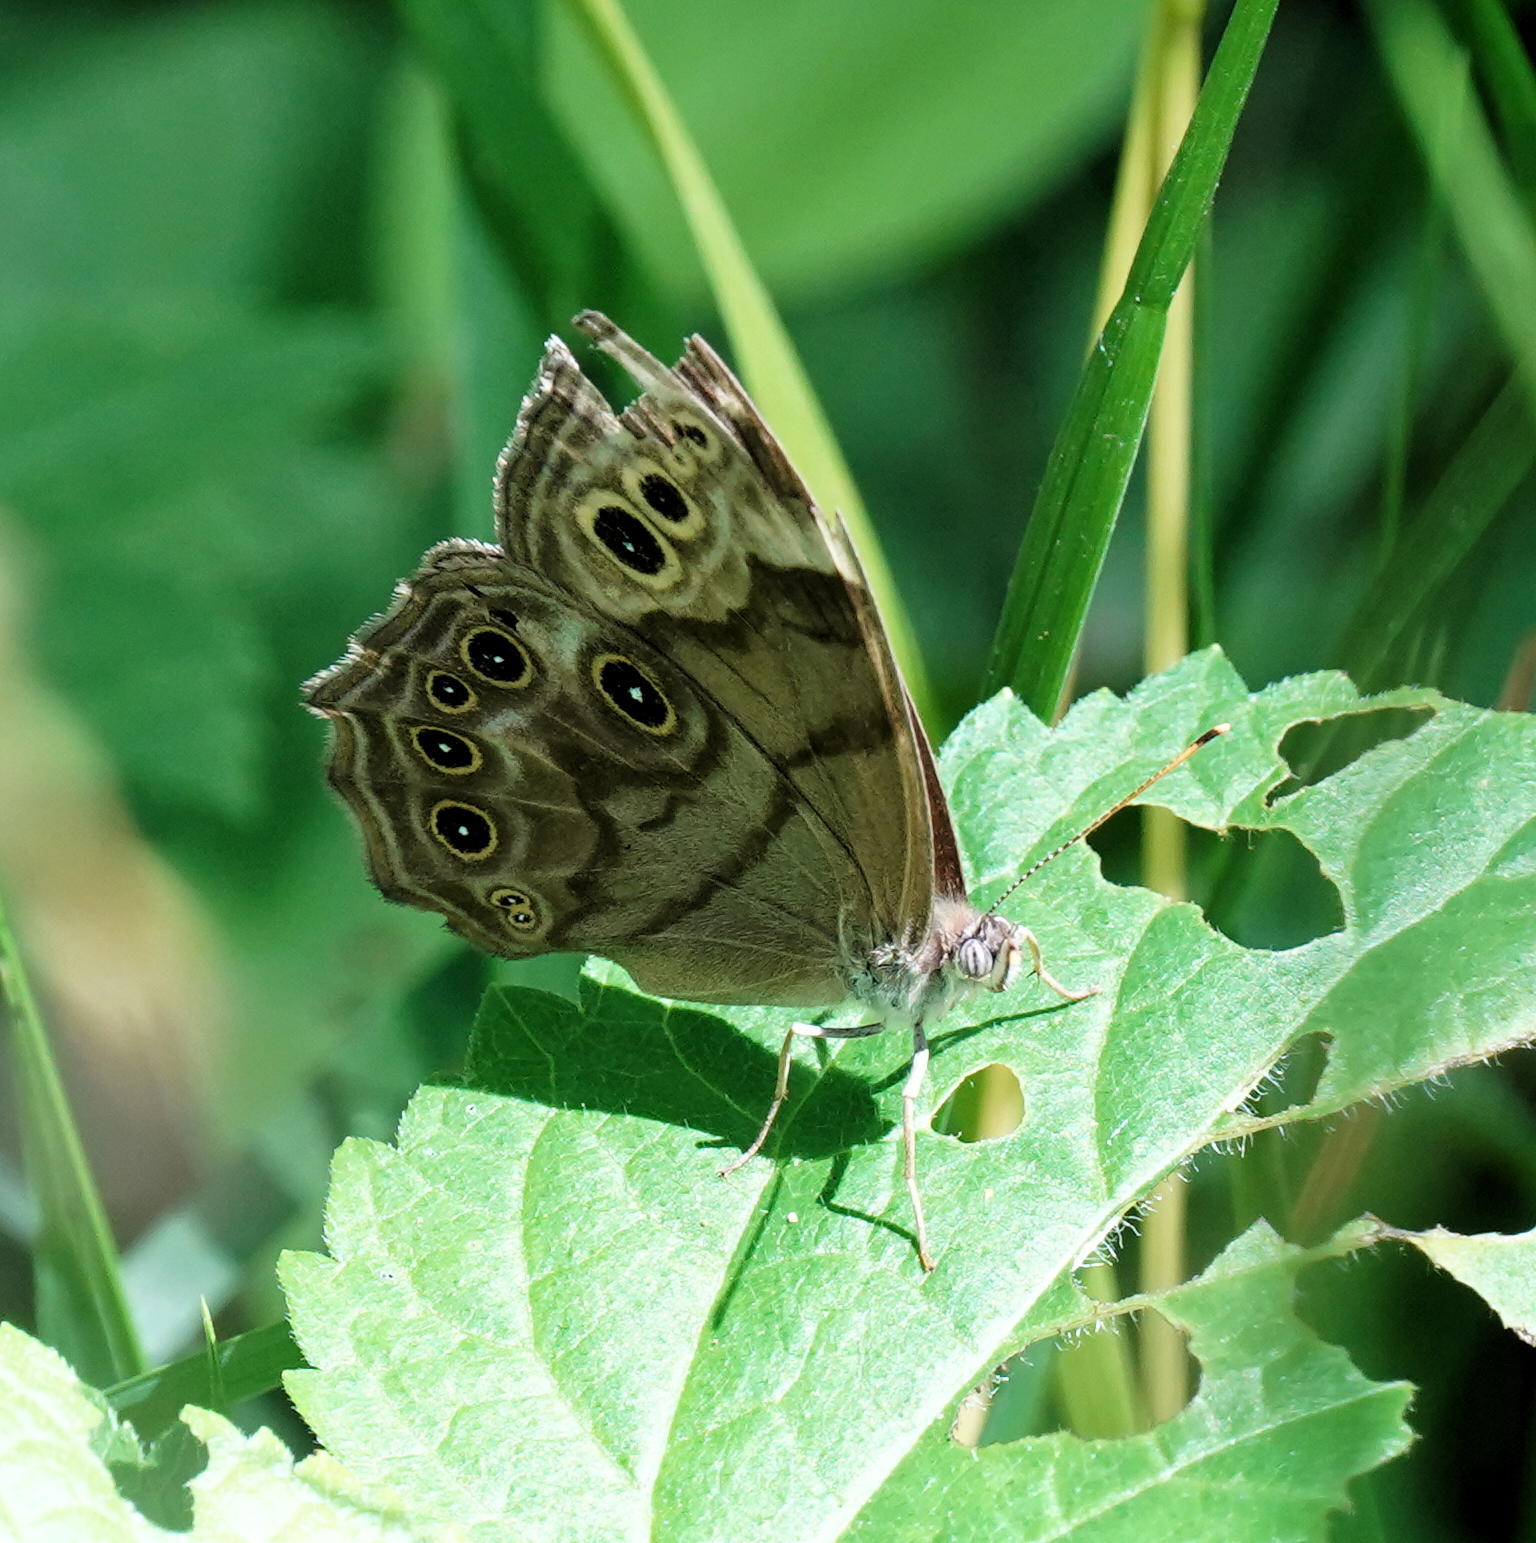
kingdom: Animalia
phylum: Arthropoda
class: Insecta
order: Lepidoptera
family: Nymphalidae
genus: Lethe
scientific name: Lethe anthedon
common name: Northern pearly-eye
